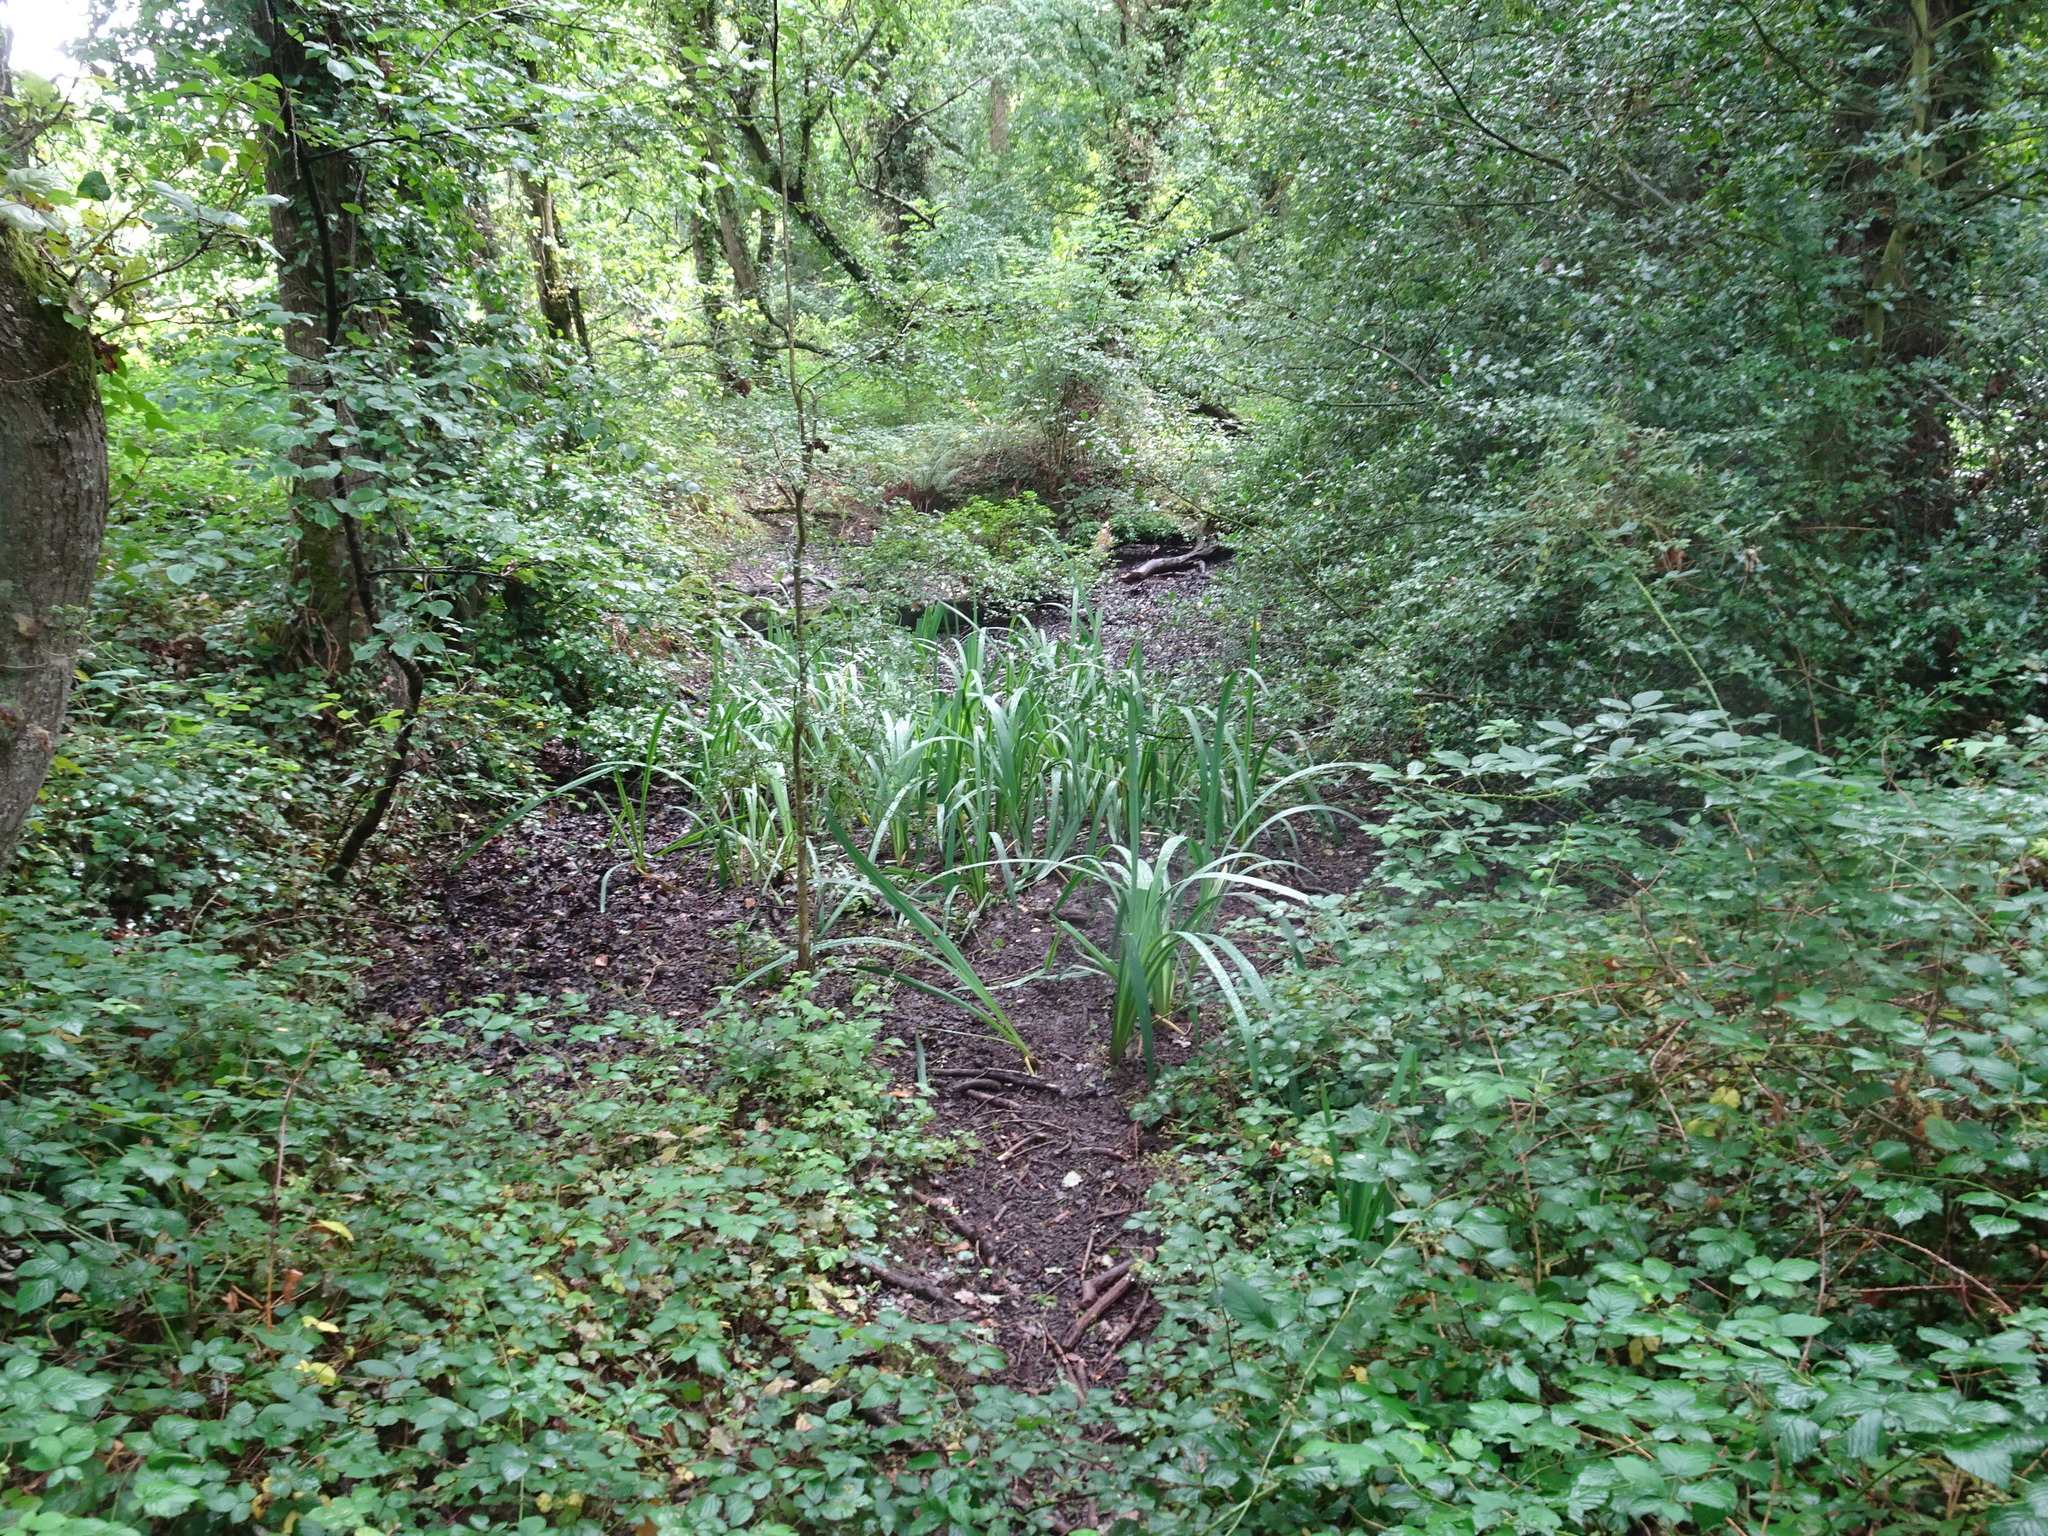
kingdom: Plantae
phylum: Tracheophyta
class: Liliopsida
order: Asparagales
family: Iridaceae
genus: Iris
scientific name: Iris pseudacorus
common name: Yellow flag
